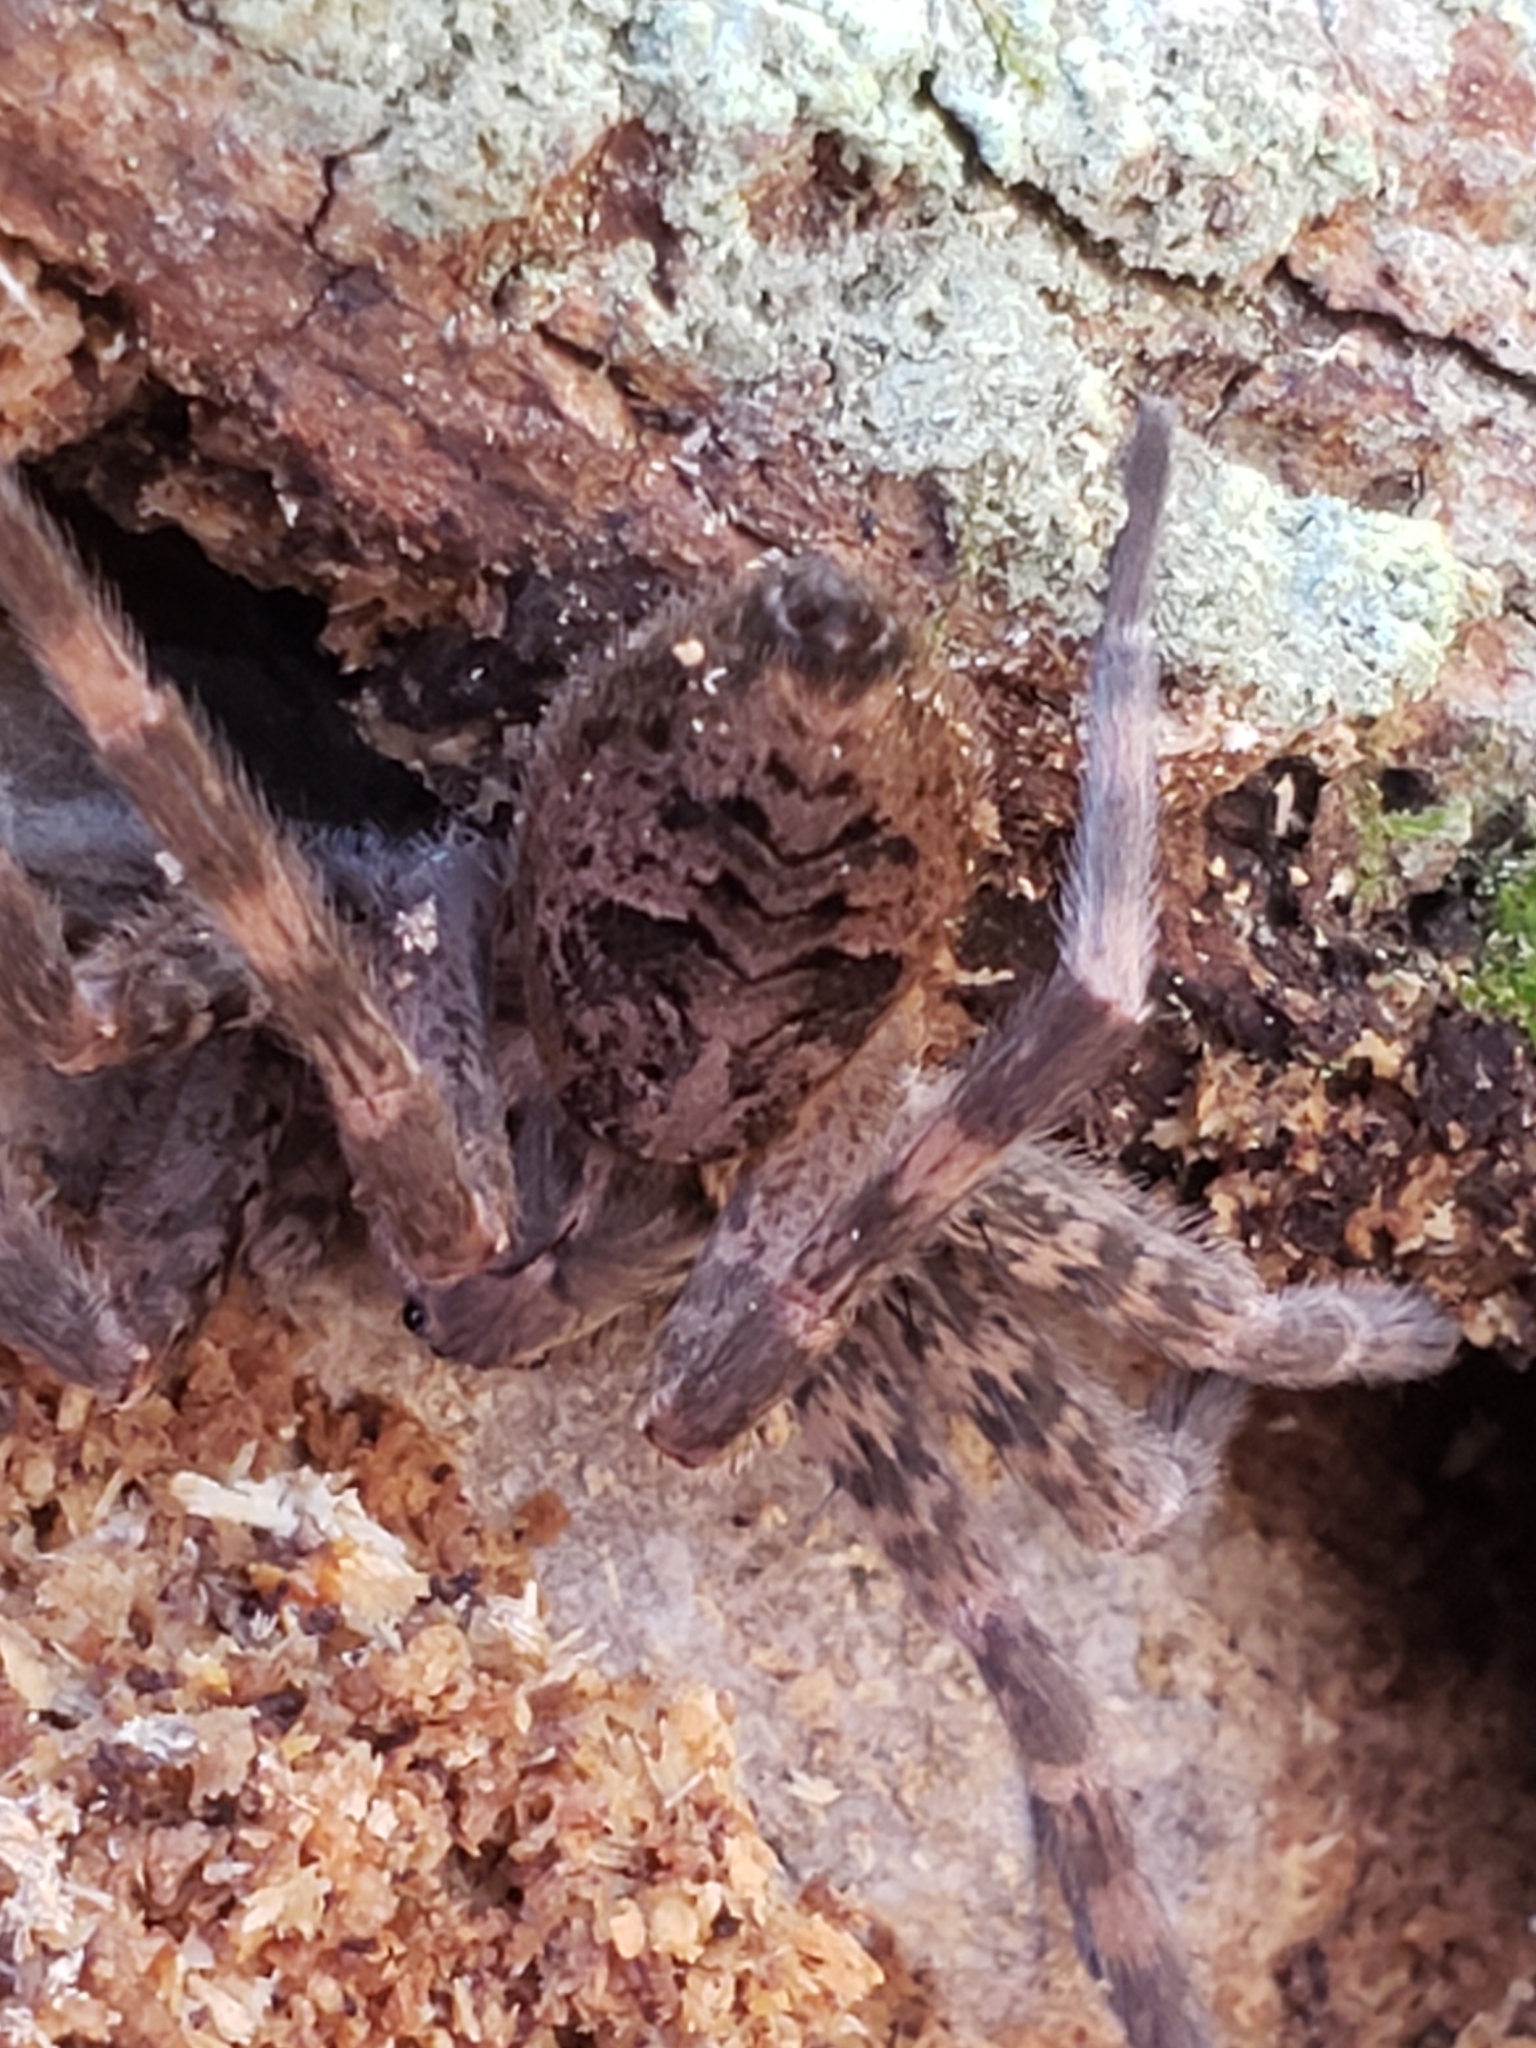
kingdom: Animalia
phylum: Arthropoda
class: Arachnida
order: Araneae
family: Pisauridae
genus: Dolomedes
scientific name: Dolomedes tenebrosus
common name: Dark fishing spider
